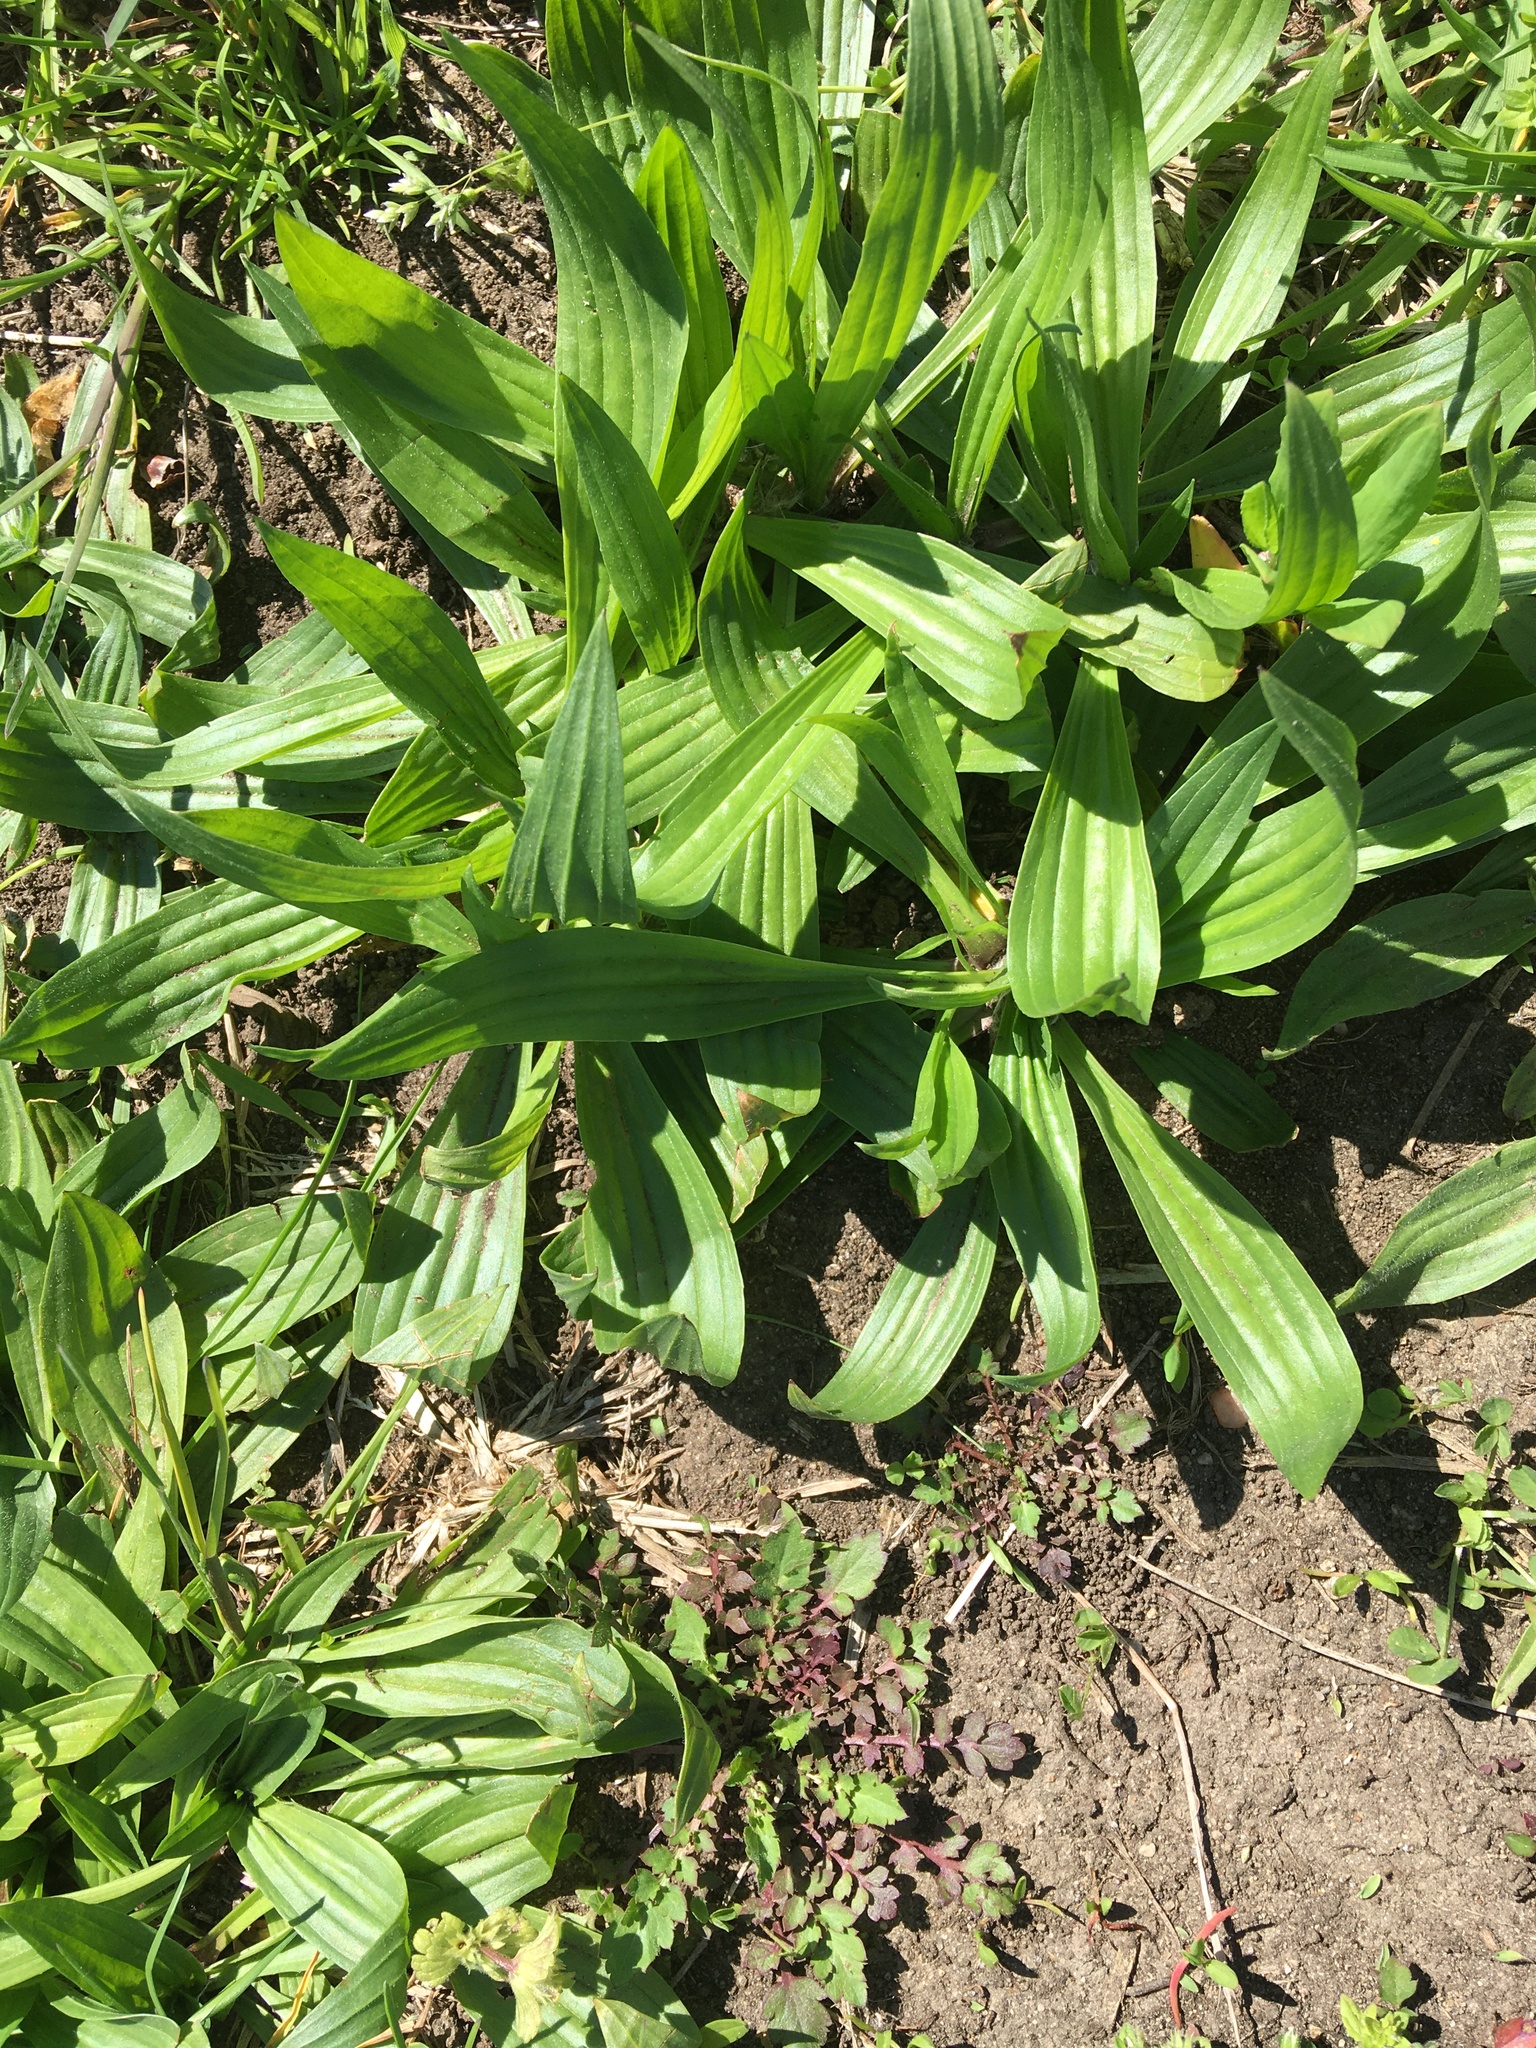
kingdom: Plantae
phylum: Tracheophyta
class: Magnoliopsida
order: Lamiales
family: Plantaginaceae
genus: Plantago
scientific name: Plantago lanceolata
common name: Ribwort plantain
